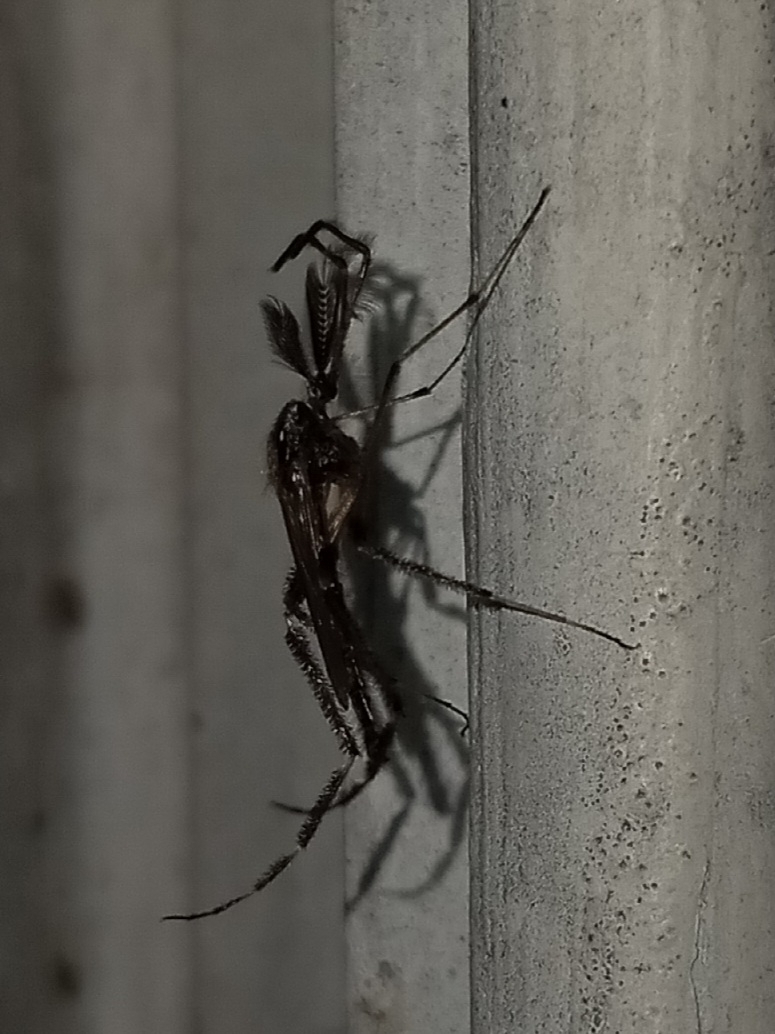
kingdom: Animalia
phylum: Arthropoda
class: Insecta
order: Diptera
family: Culicidae
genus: Psorophora
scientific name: Psorophora ciliata
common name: Gallinipper
